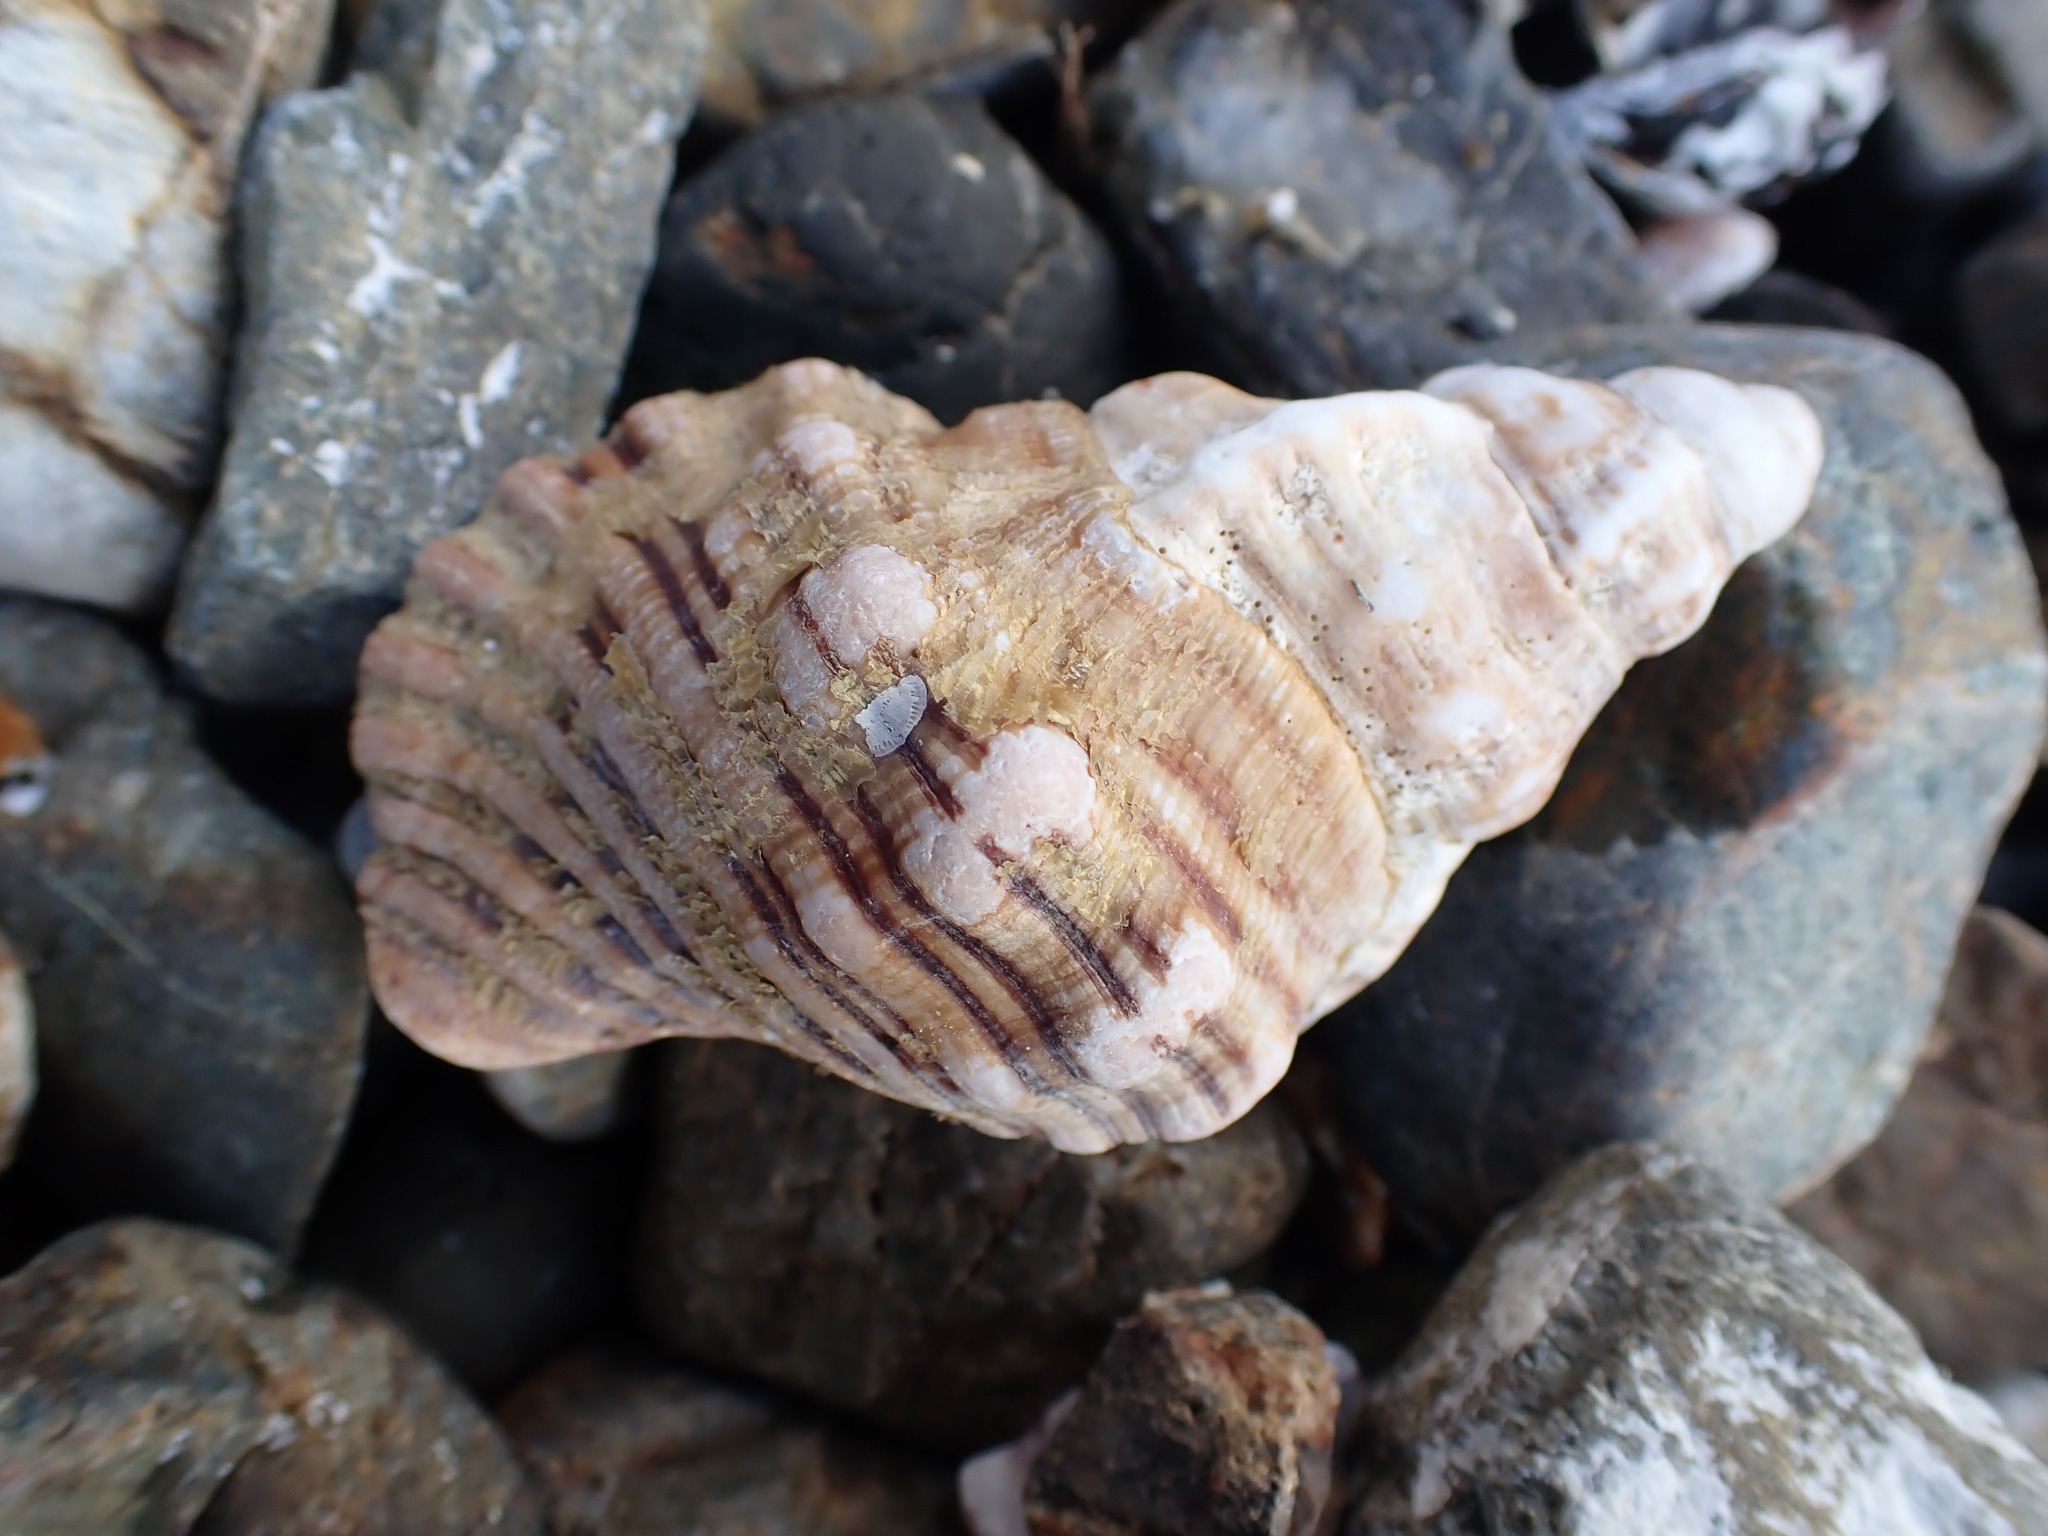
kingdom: Animalia
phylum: Mollusca
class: Gastropoda
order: Littorinimorpha
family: Cymatiidae
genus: Cabestana
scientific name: Cabestana spengleri
